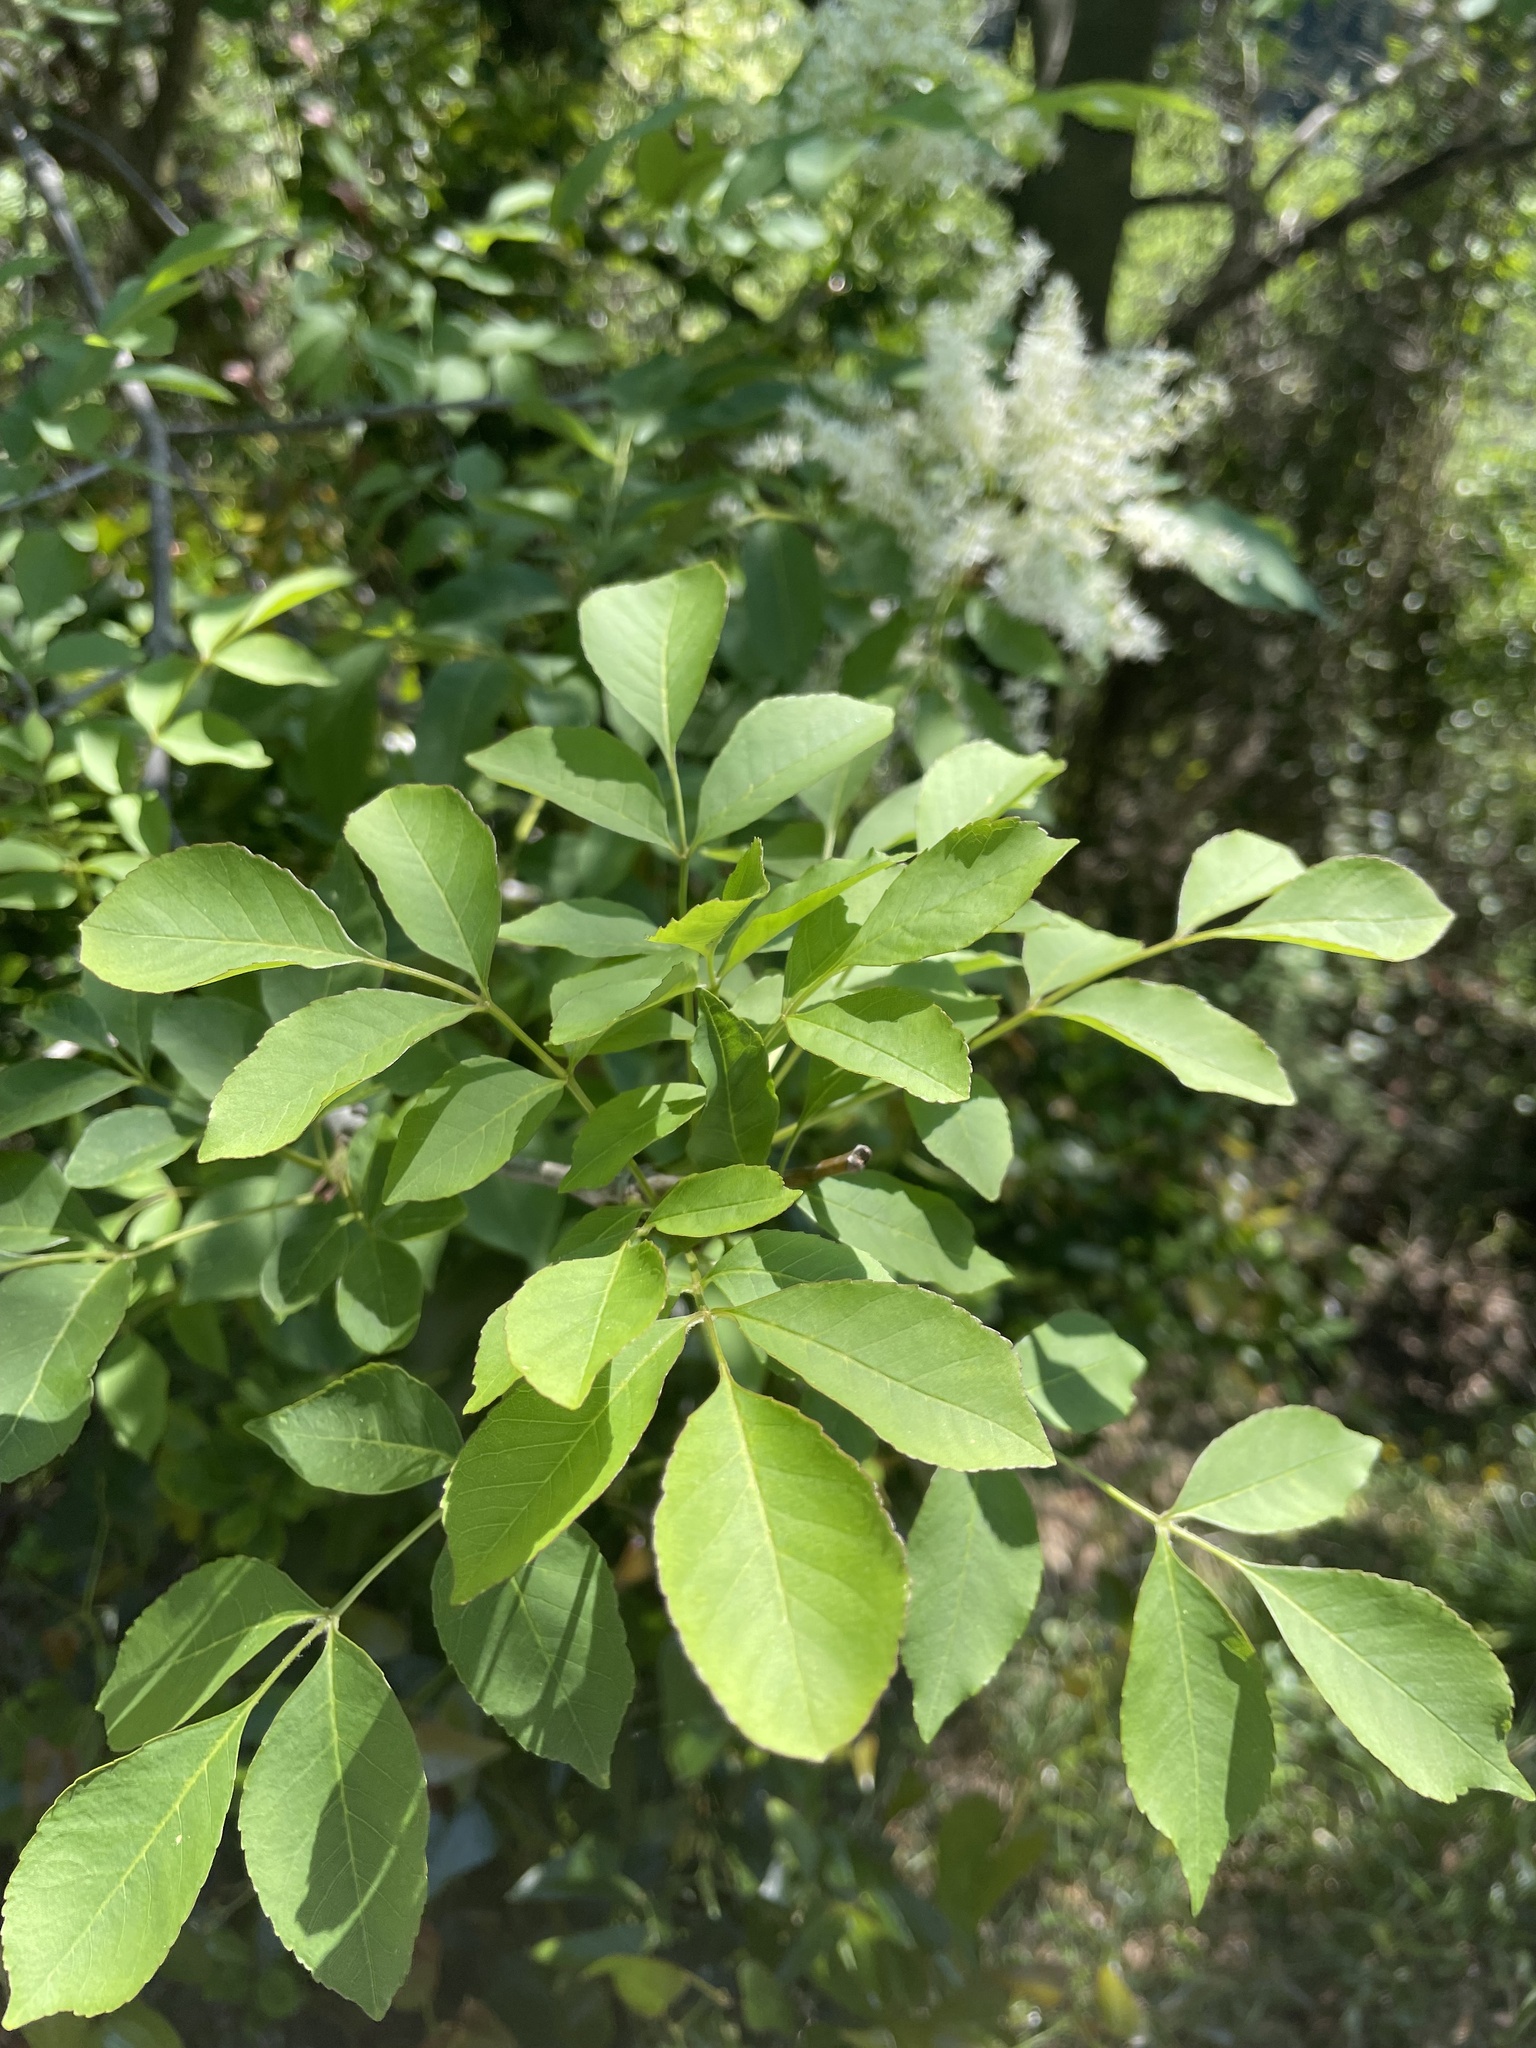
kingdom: Plantae
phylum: Tracheophyta
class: Magnoliopsida
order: Lamiales
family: Oleaceae
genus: Fraxinus
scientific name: Fraxinus ornus
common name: Manna ash
